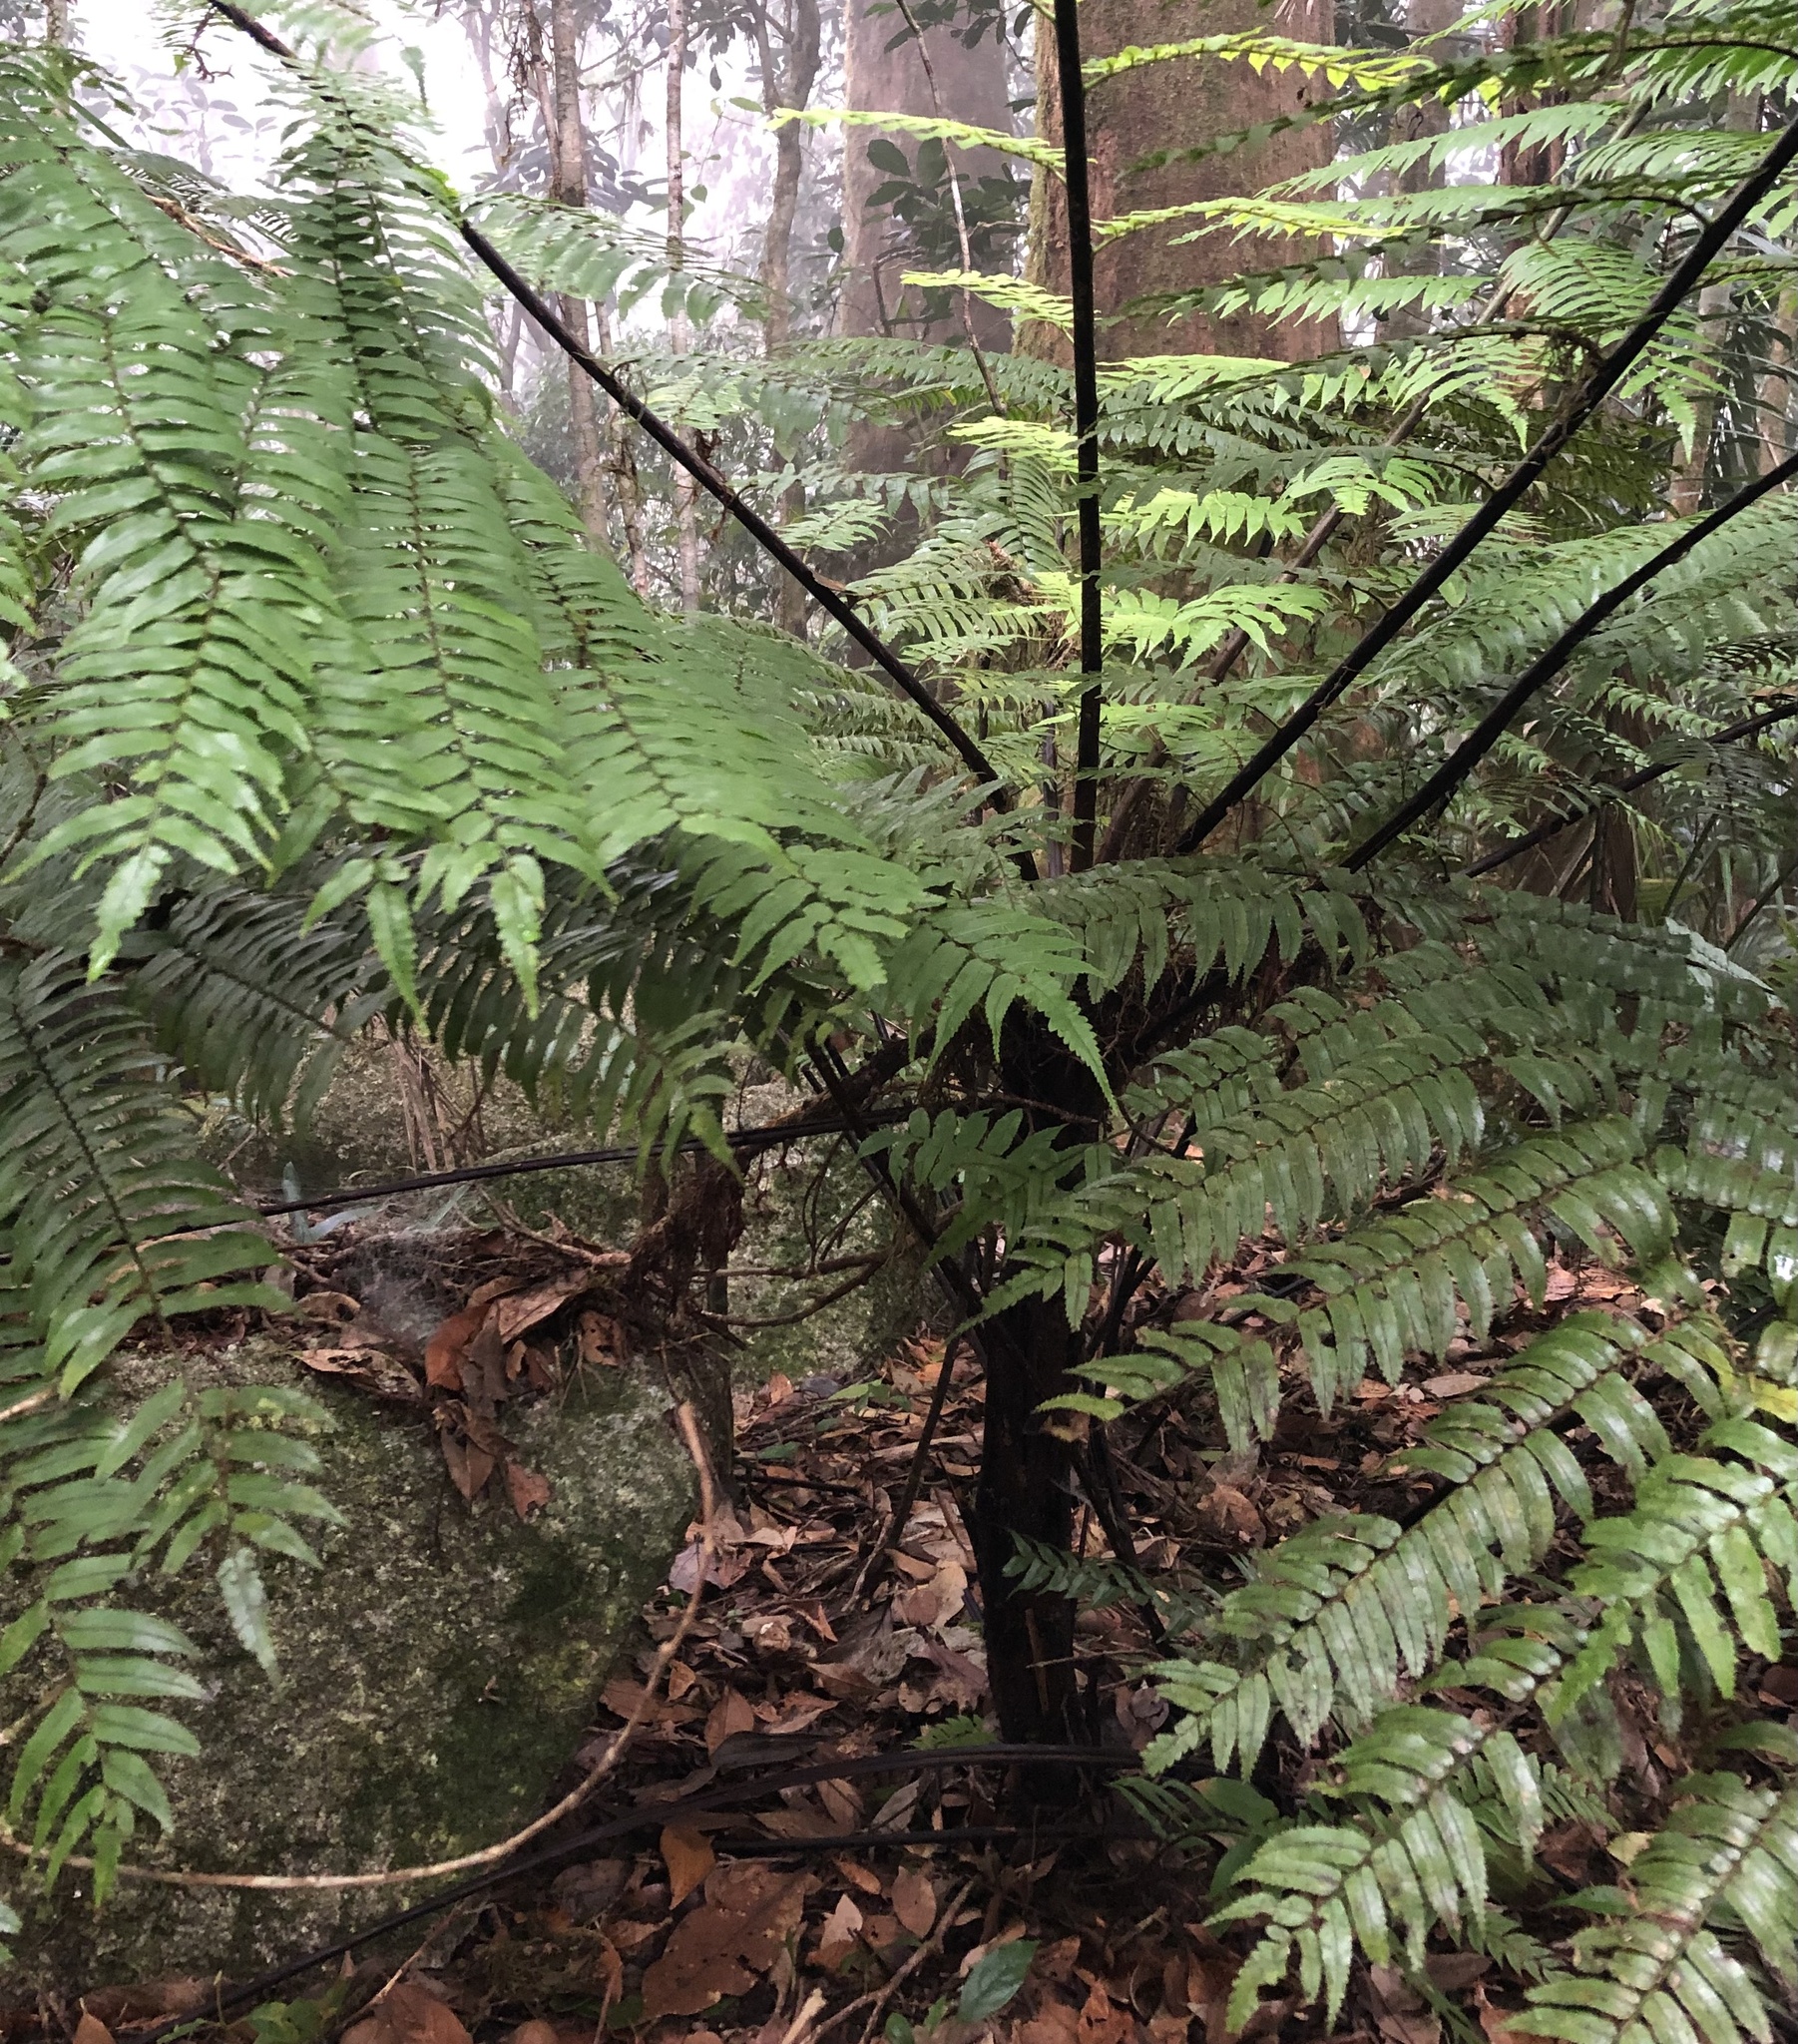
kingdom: Plantae
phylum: Tracheophyta
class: Polypodiopsida
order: Cyatheales
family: Cyatheaceae
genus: Gymnosphaera
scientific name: Gymnosphaera rebeccae
